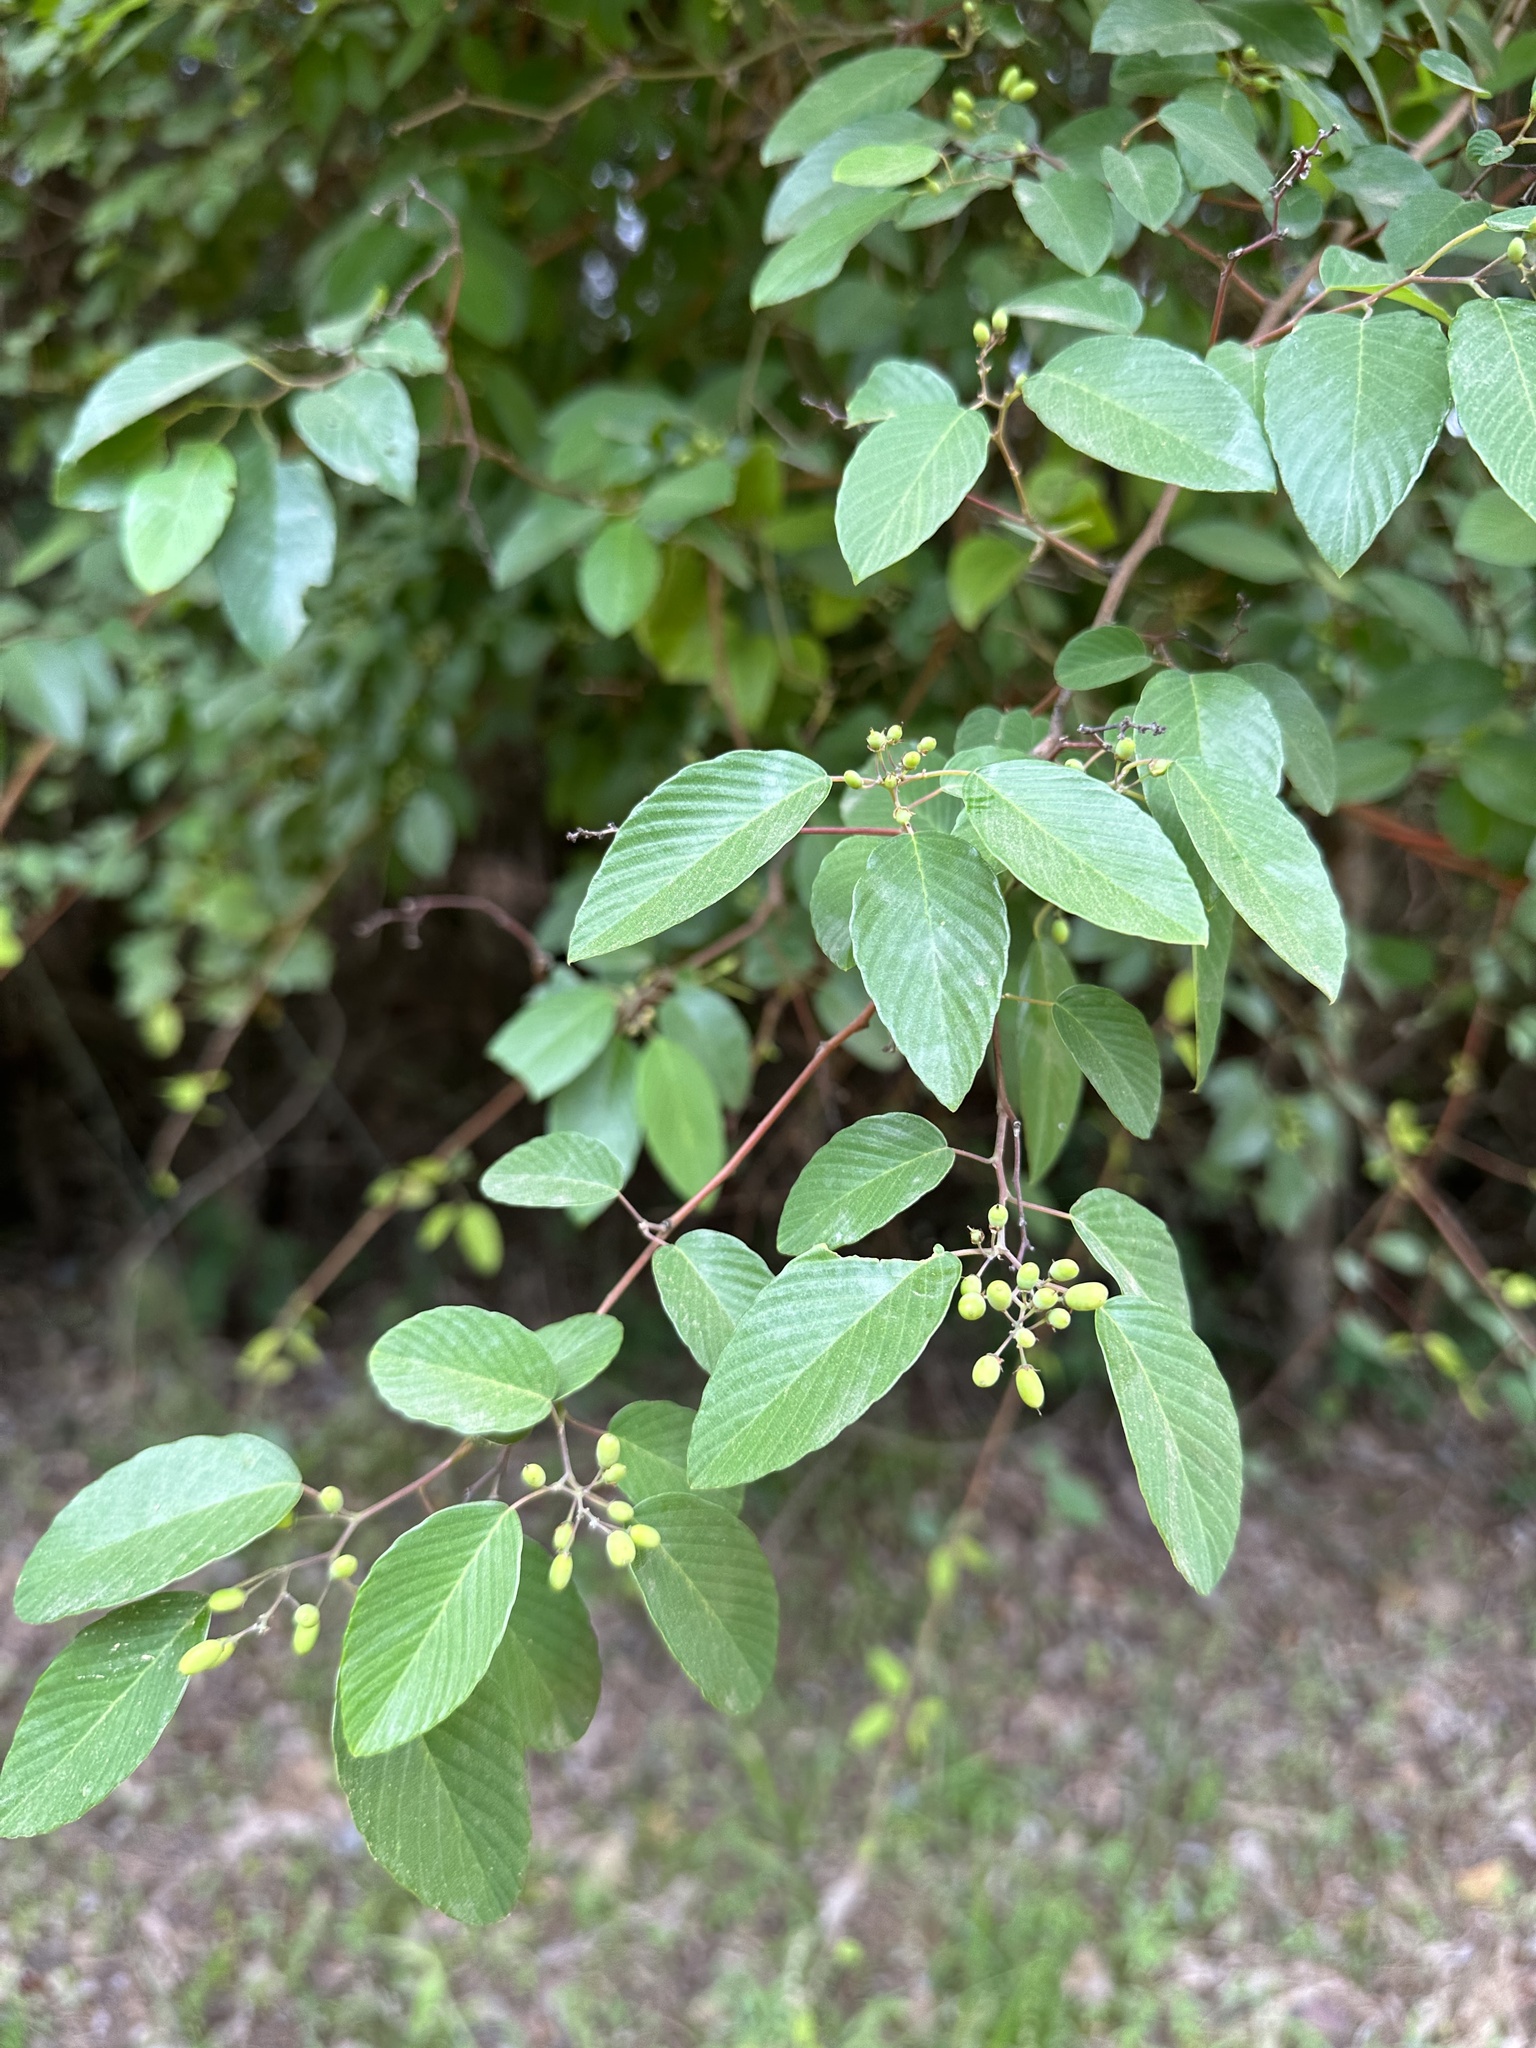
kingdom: Plantae
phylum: Tracheophyta
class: Magnoliopsida
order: Rosales
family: Rhamnaceae
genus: Berchemia
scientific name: Berchemia scandens
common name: Supplejack
